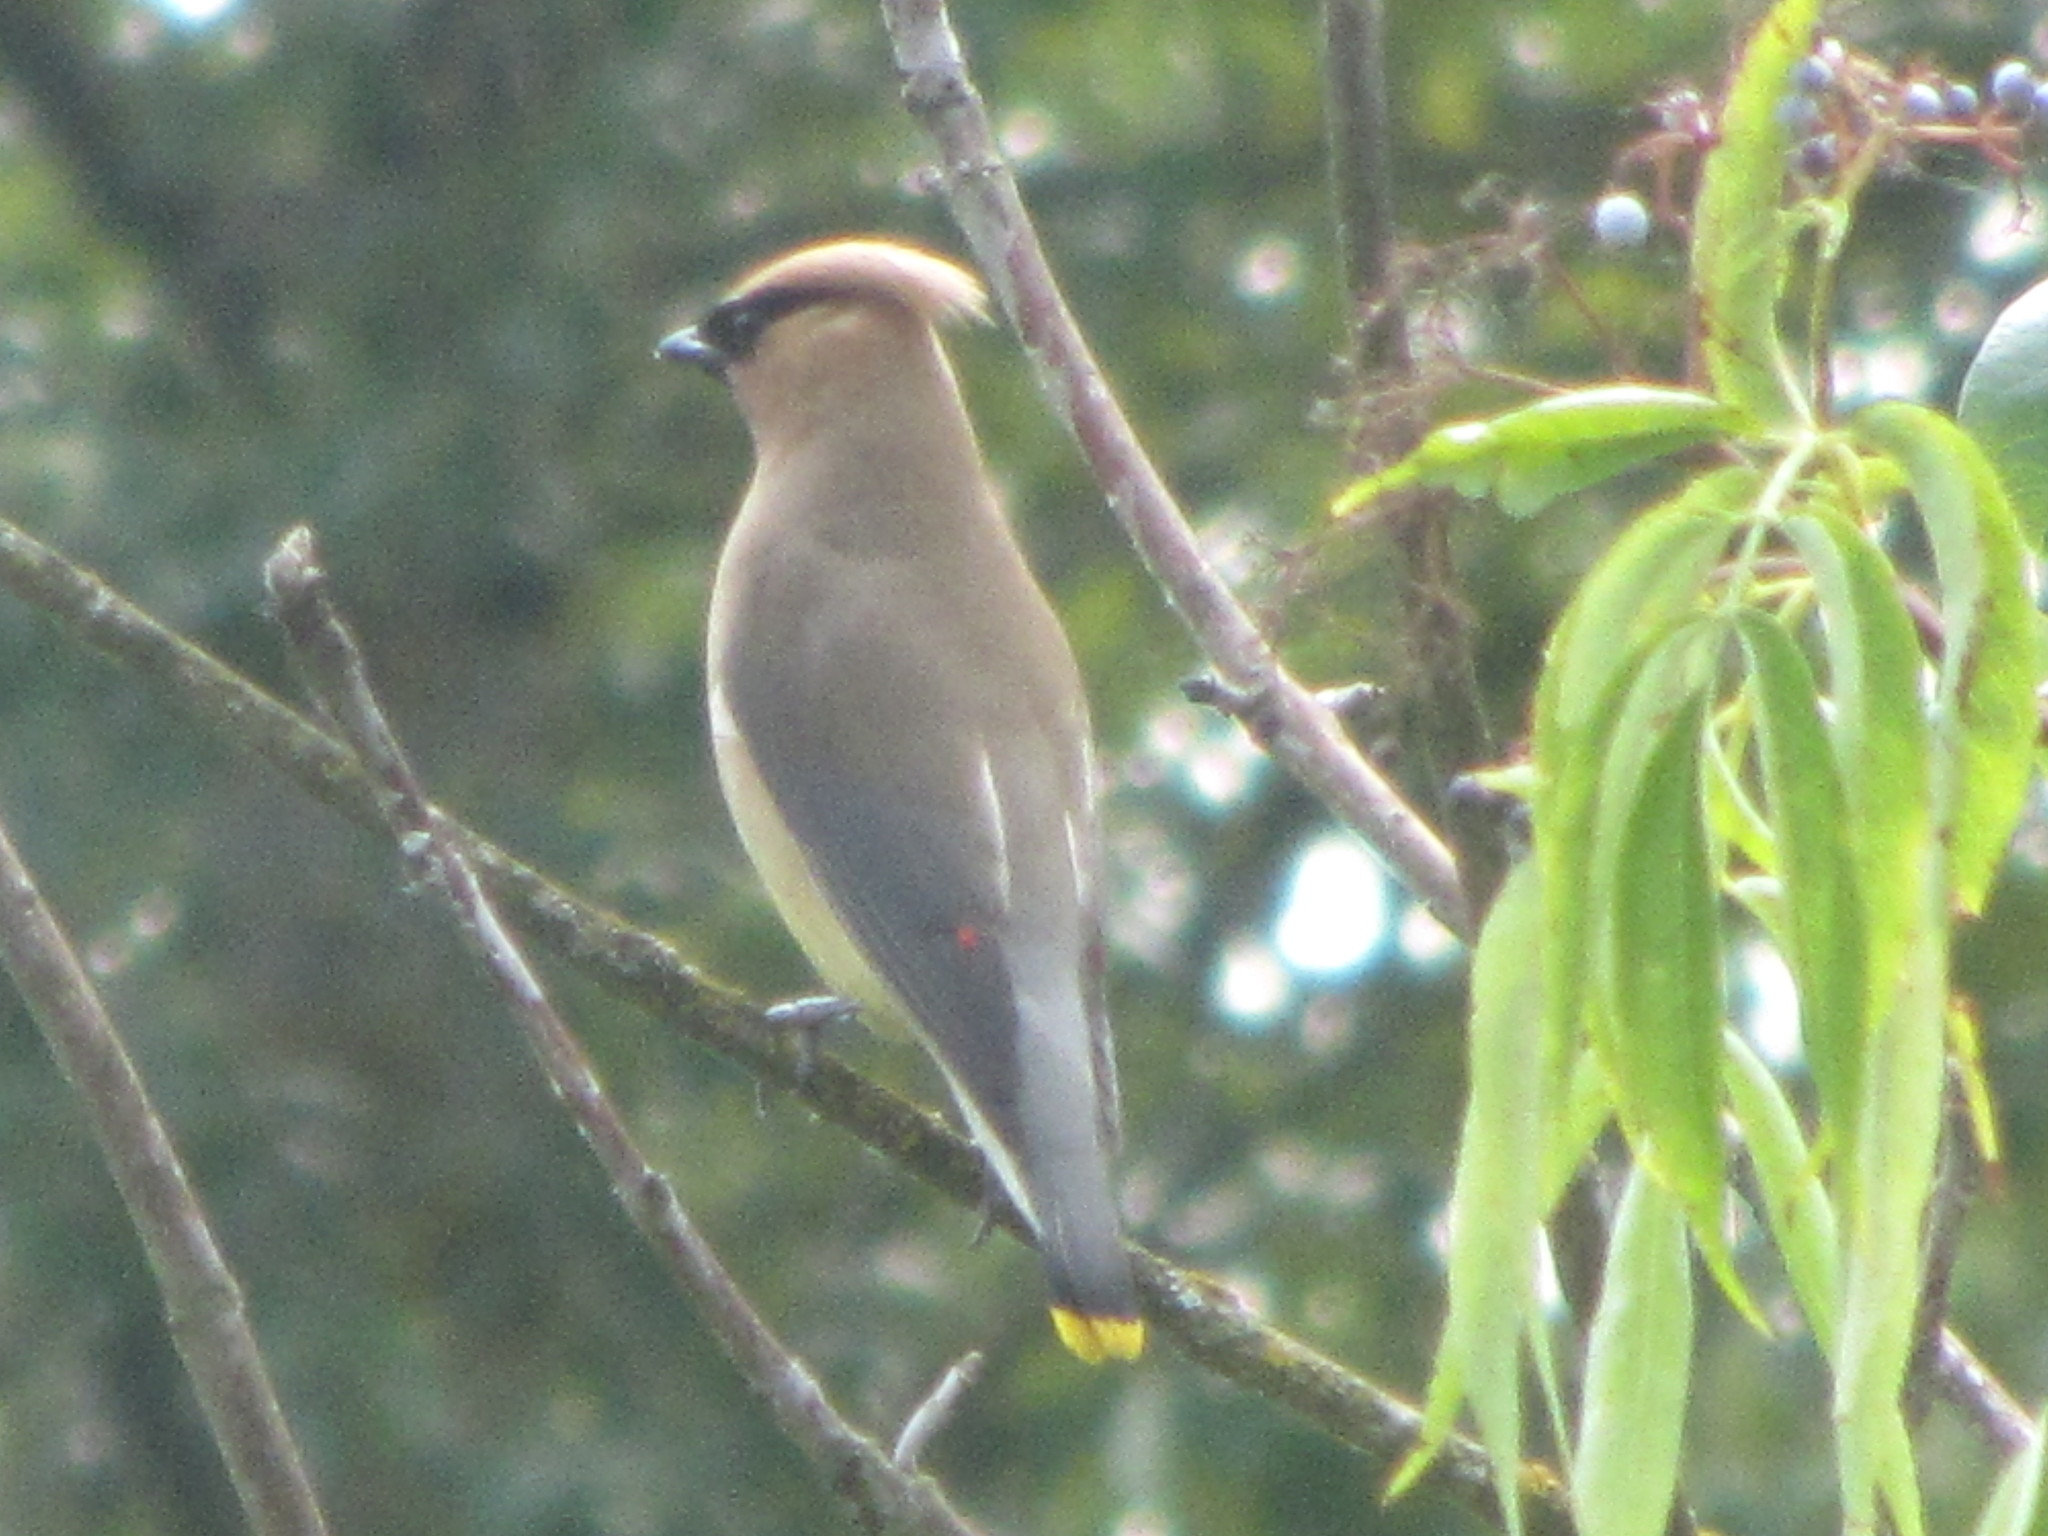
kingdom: Animalia
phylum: Chordata
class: Aves
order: Passeriformes
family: Bombycillidae
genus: Bombycilla
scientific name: Bombycilla cedrorum
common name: Cedar waxwing
